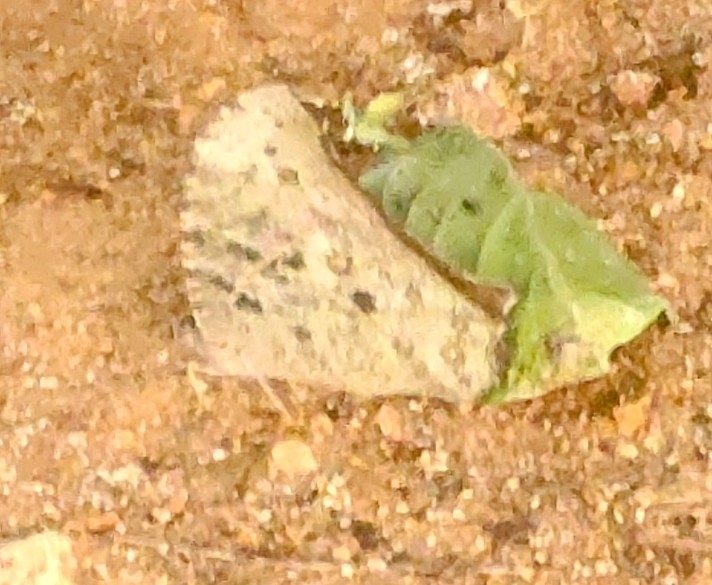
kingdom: Animalia
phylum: Arthropoda
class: Insecta
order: Lepidoptera
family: Nymphalidae
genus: Melanitis
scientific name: Melanitis leda
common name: Twilight brown
